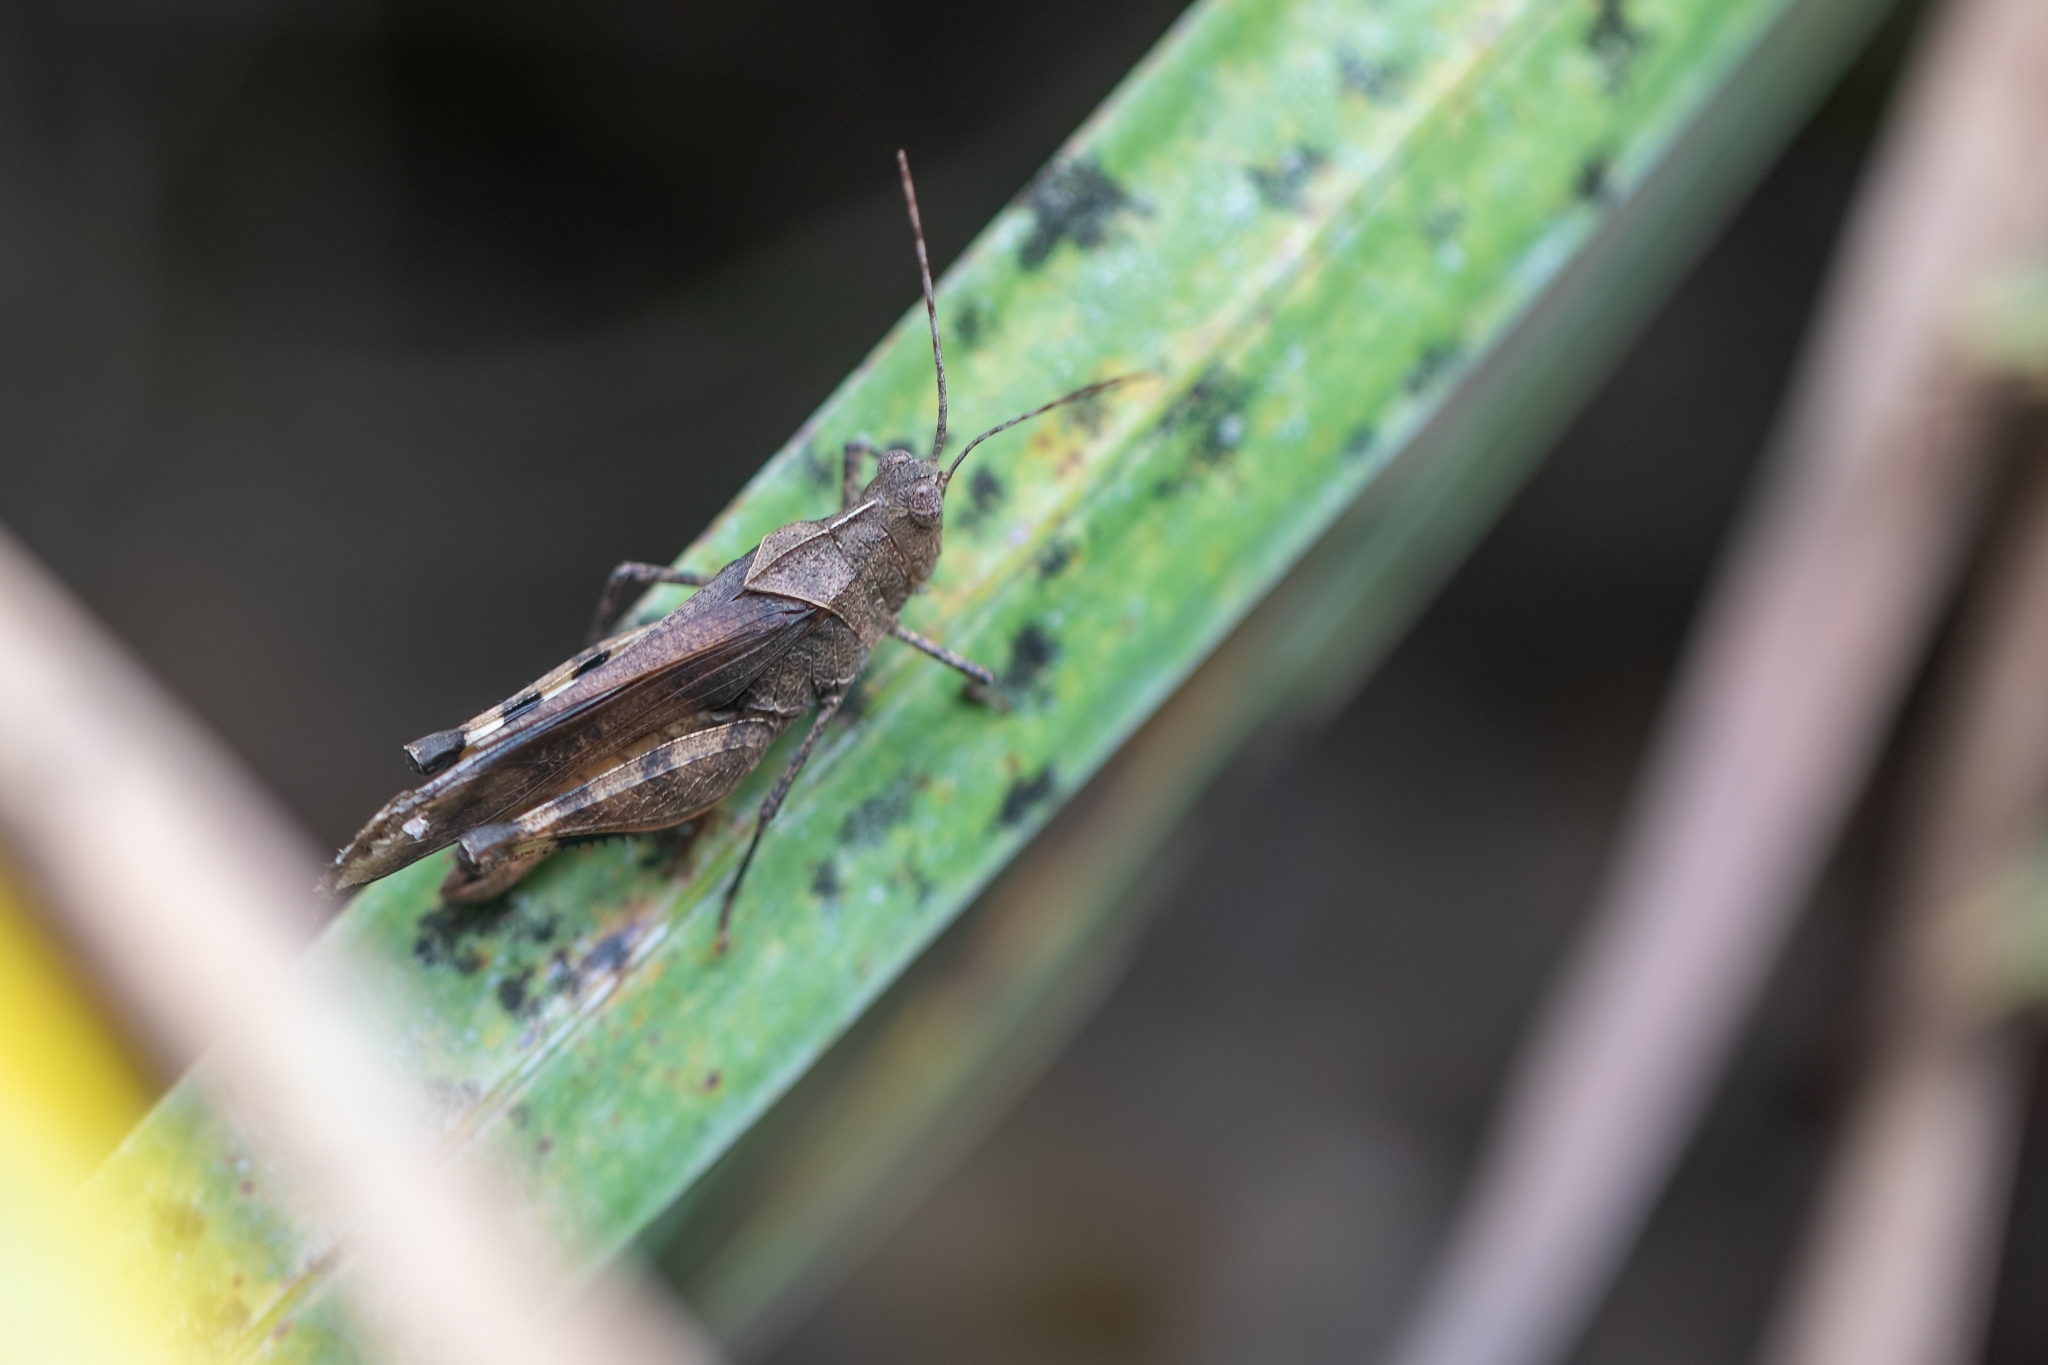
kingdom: Animalia
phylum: Arthropoda
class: Insecta
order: Orthoptera
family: Acrididae
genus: Spharagemon
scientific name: Spharagemon crepitans
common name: Crepitating grasshopper
